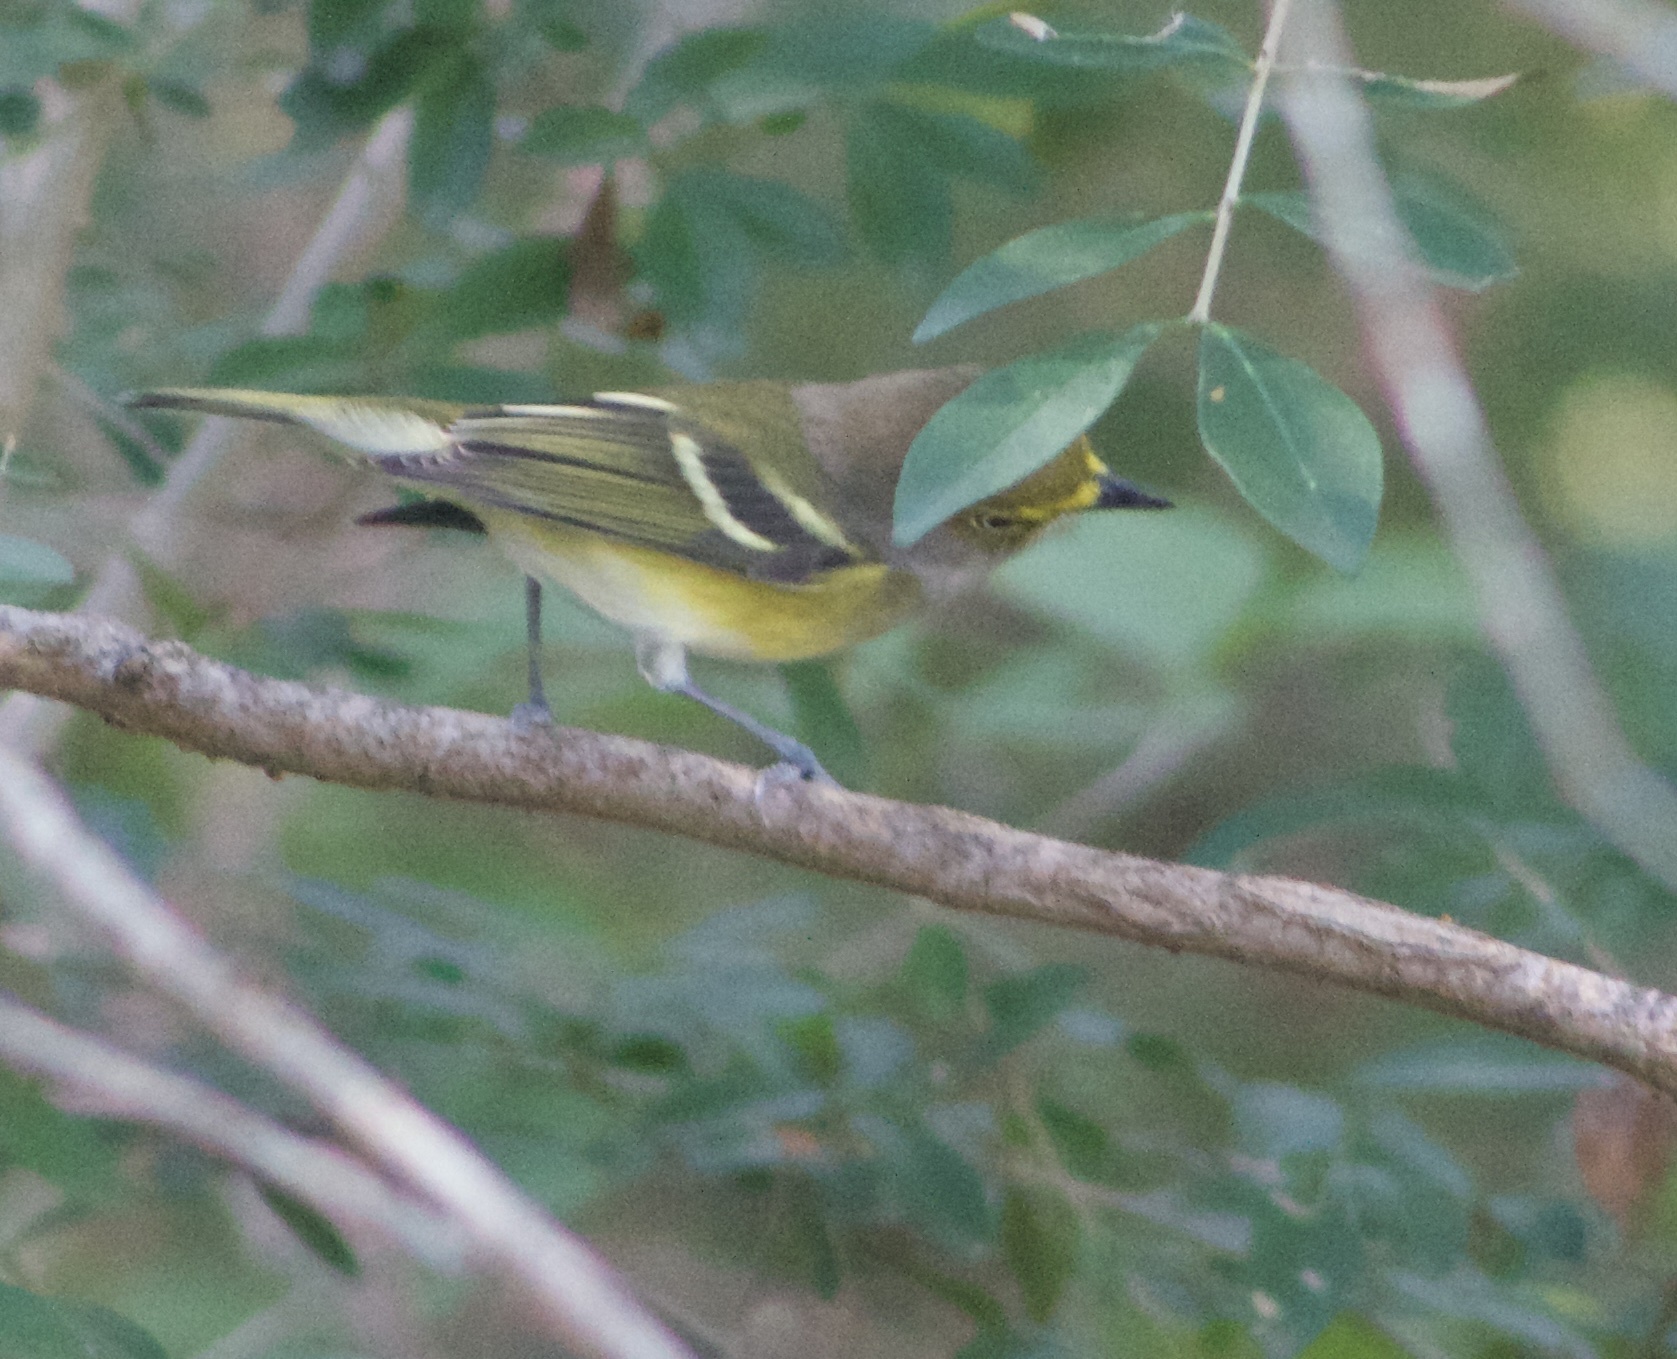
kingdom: Animalia
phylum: Chordata
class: Aves
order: Passeriformes
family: Vireonidae
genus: Vireo
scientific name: Vireo griseus
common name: White-eyed vireo
